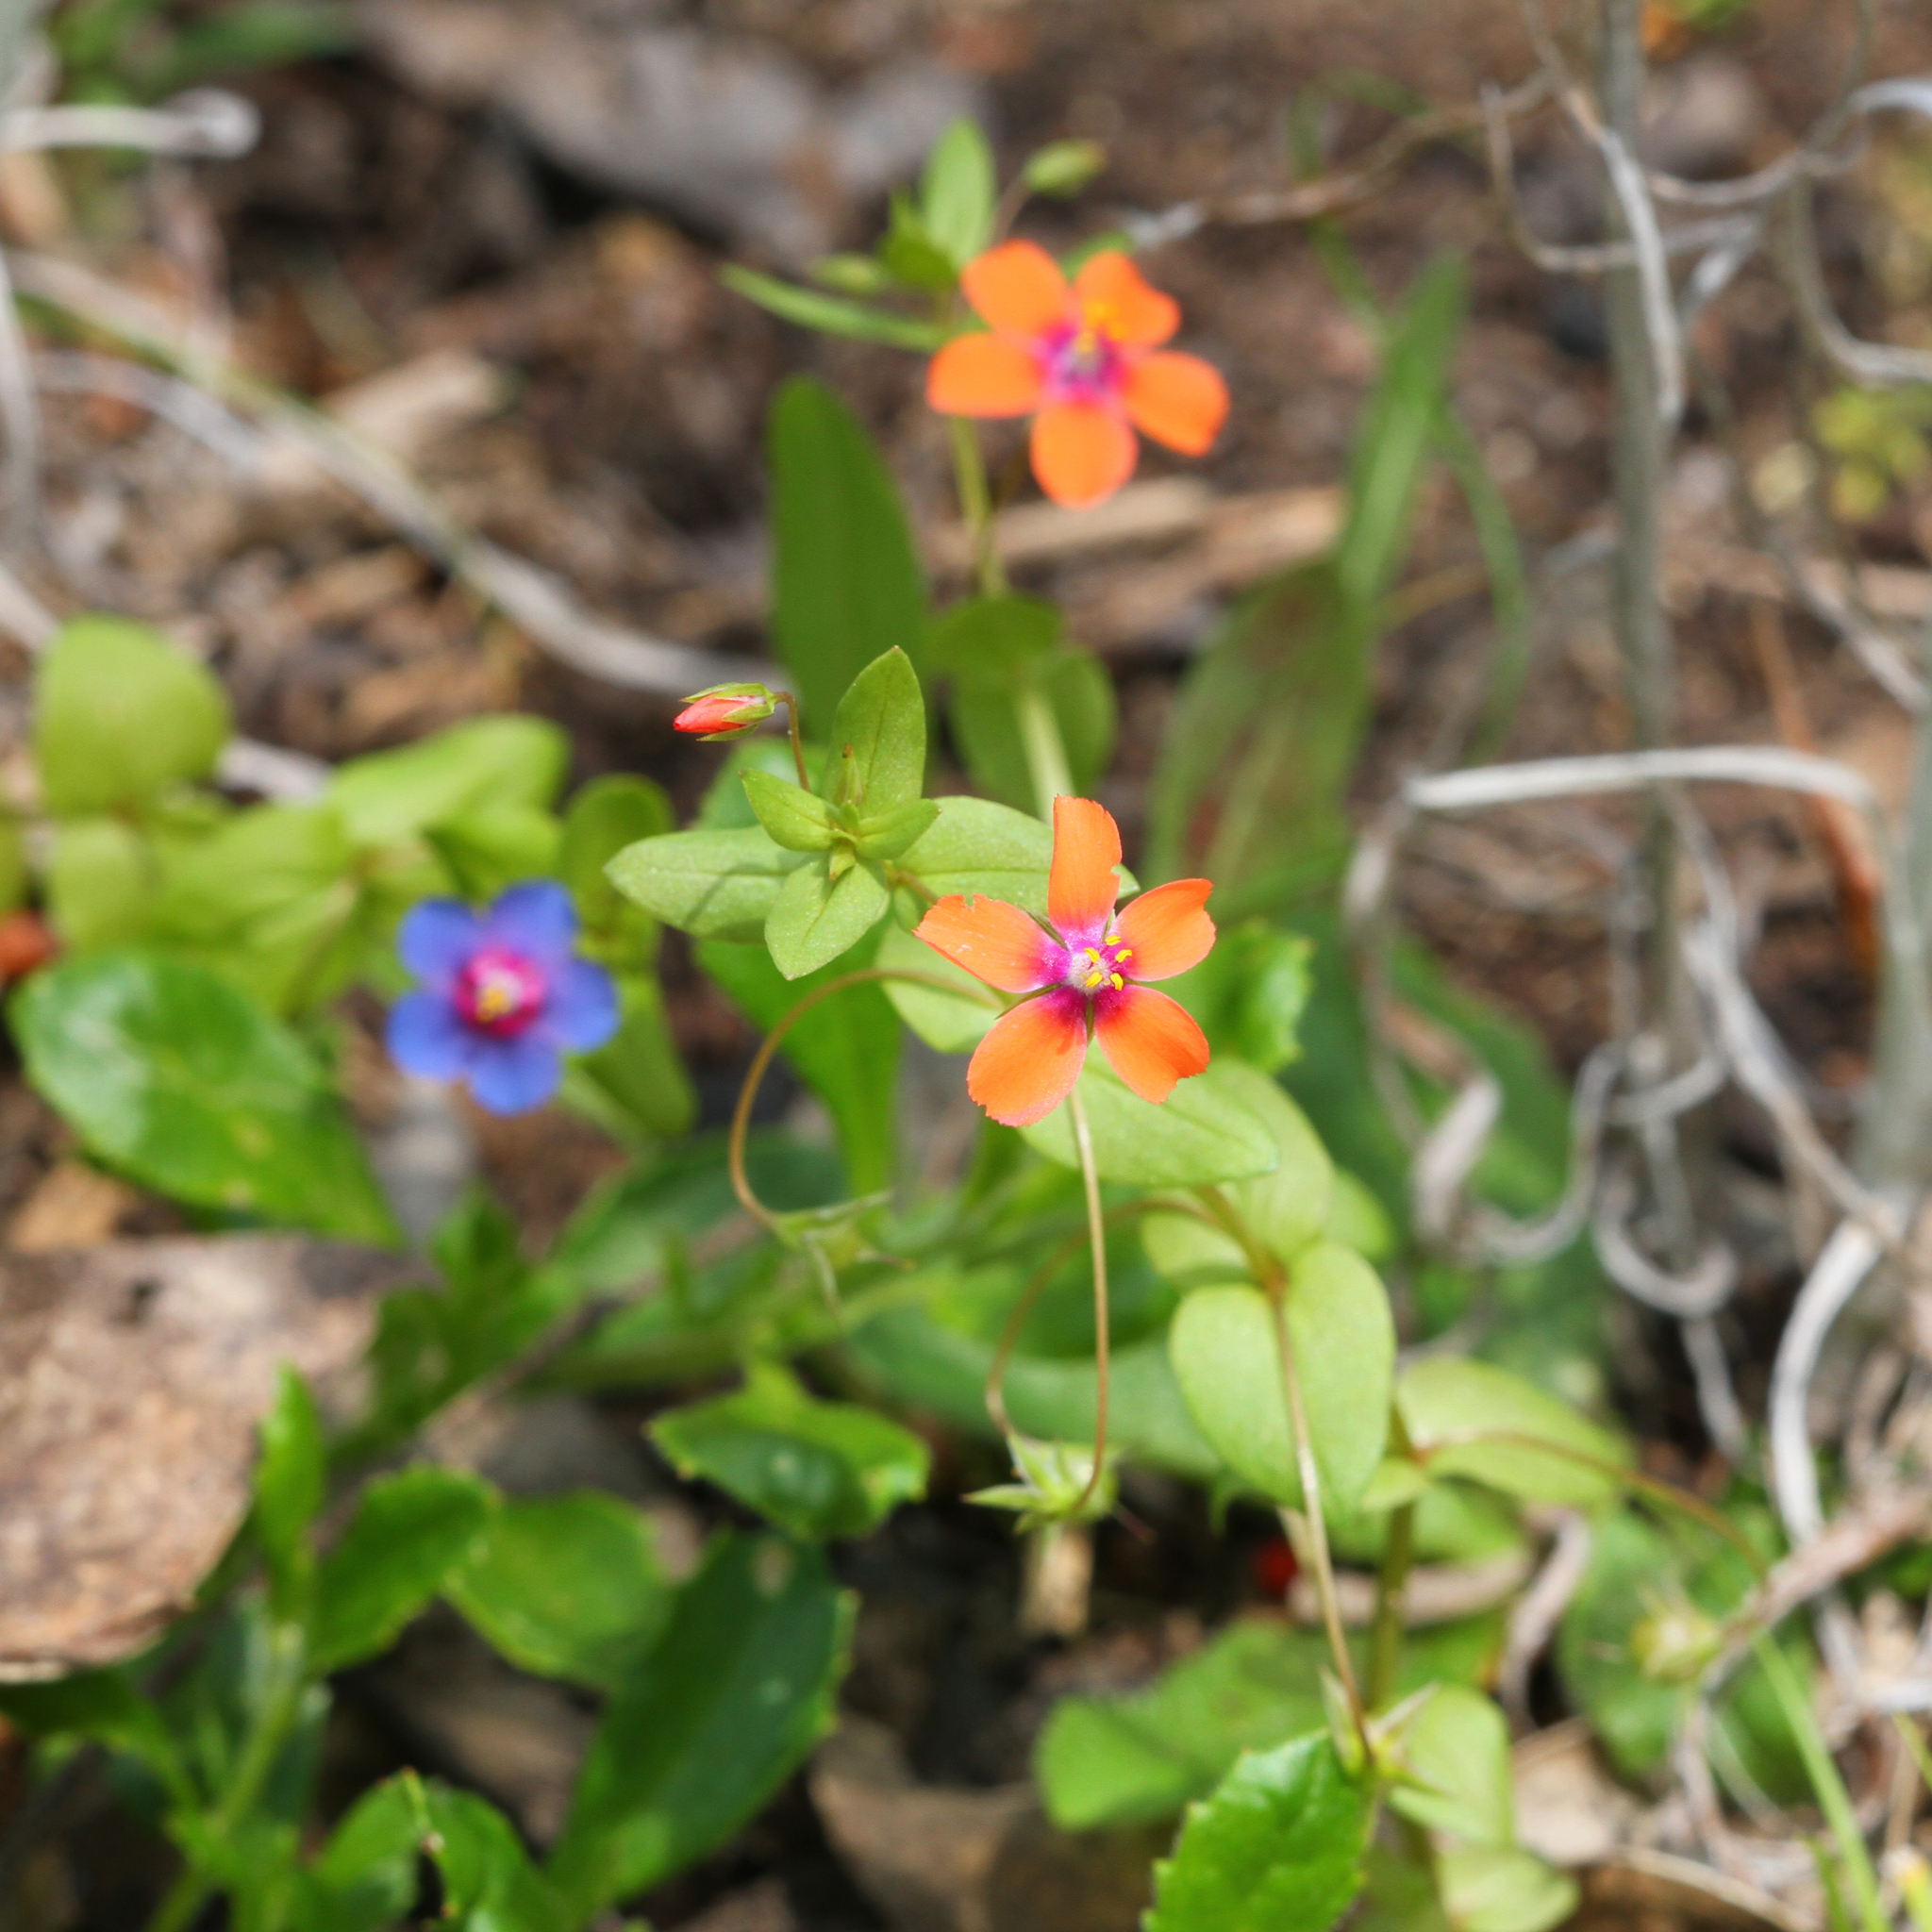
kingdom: Plantae
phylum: Tracheophyta
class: Magnoliopsida
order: Ericales
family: Primulaceae
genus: Lysimachia
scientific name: Lysimachia arvensis
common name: Scarlet pimpernel
